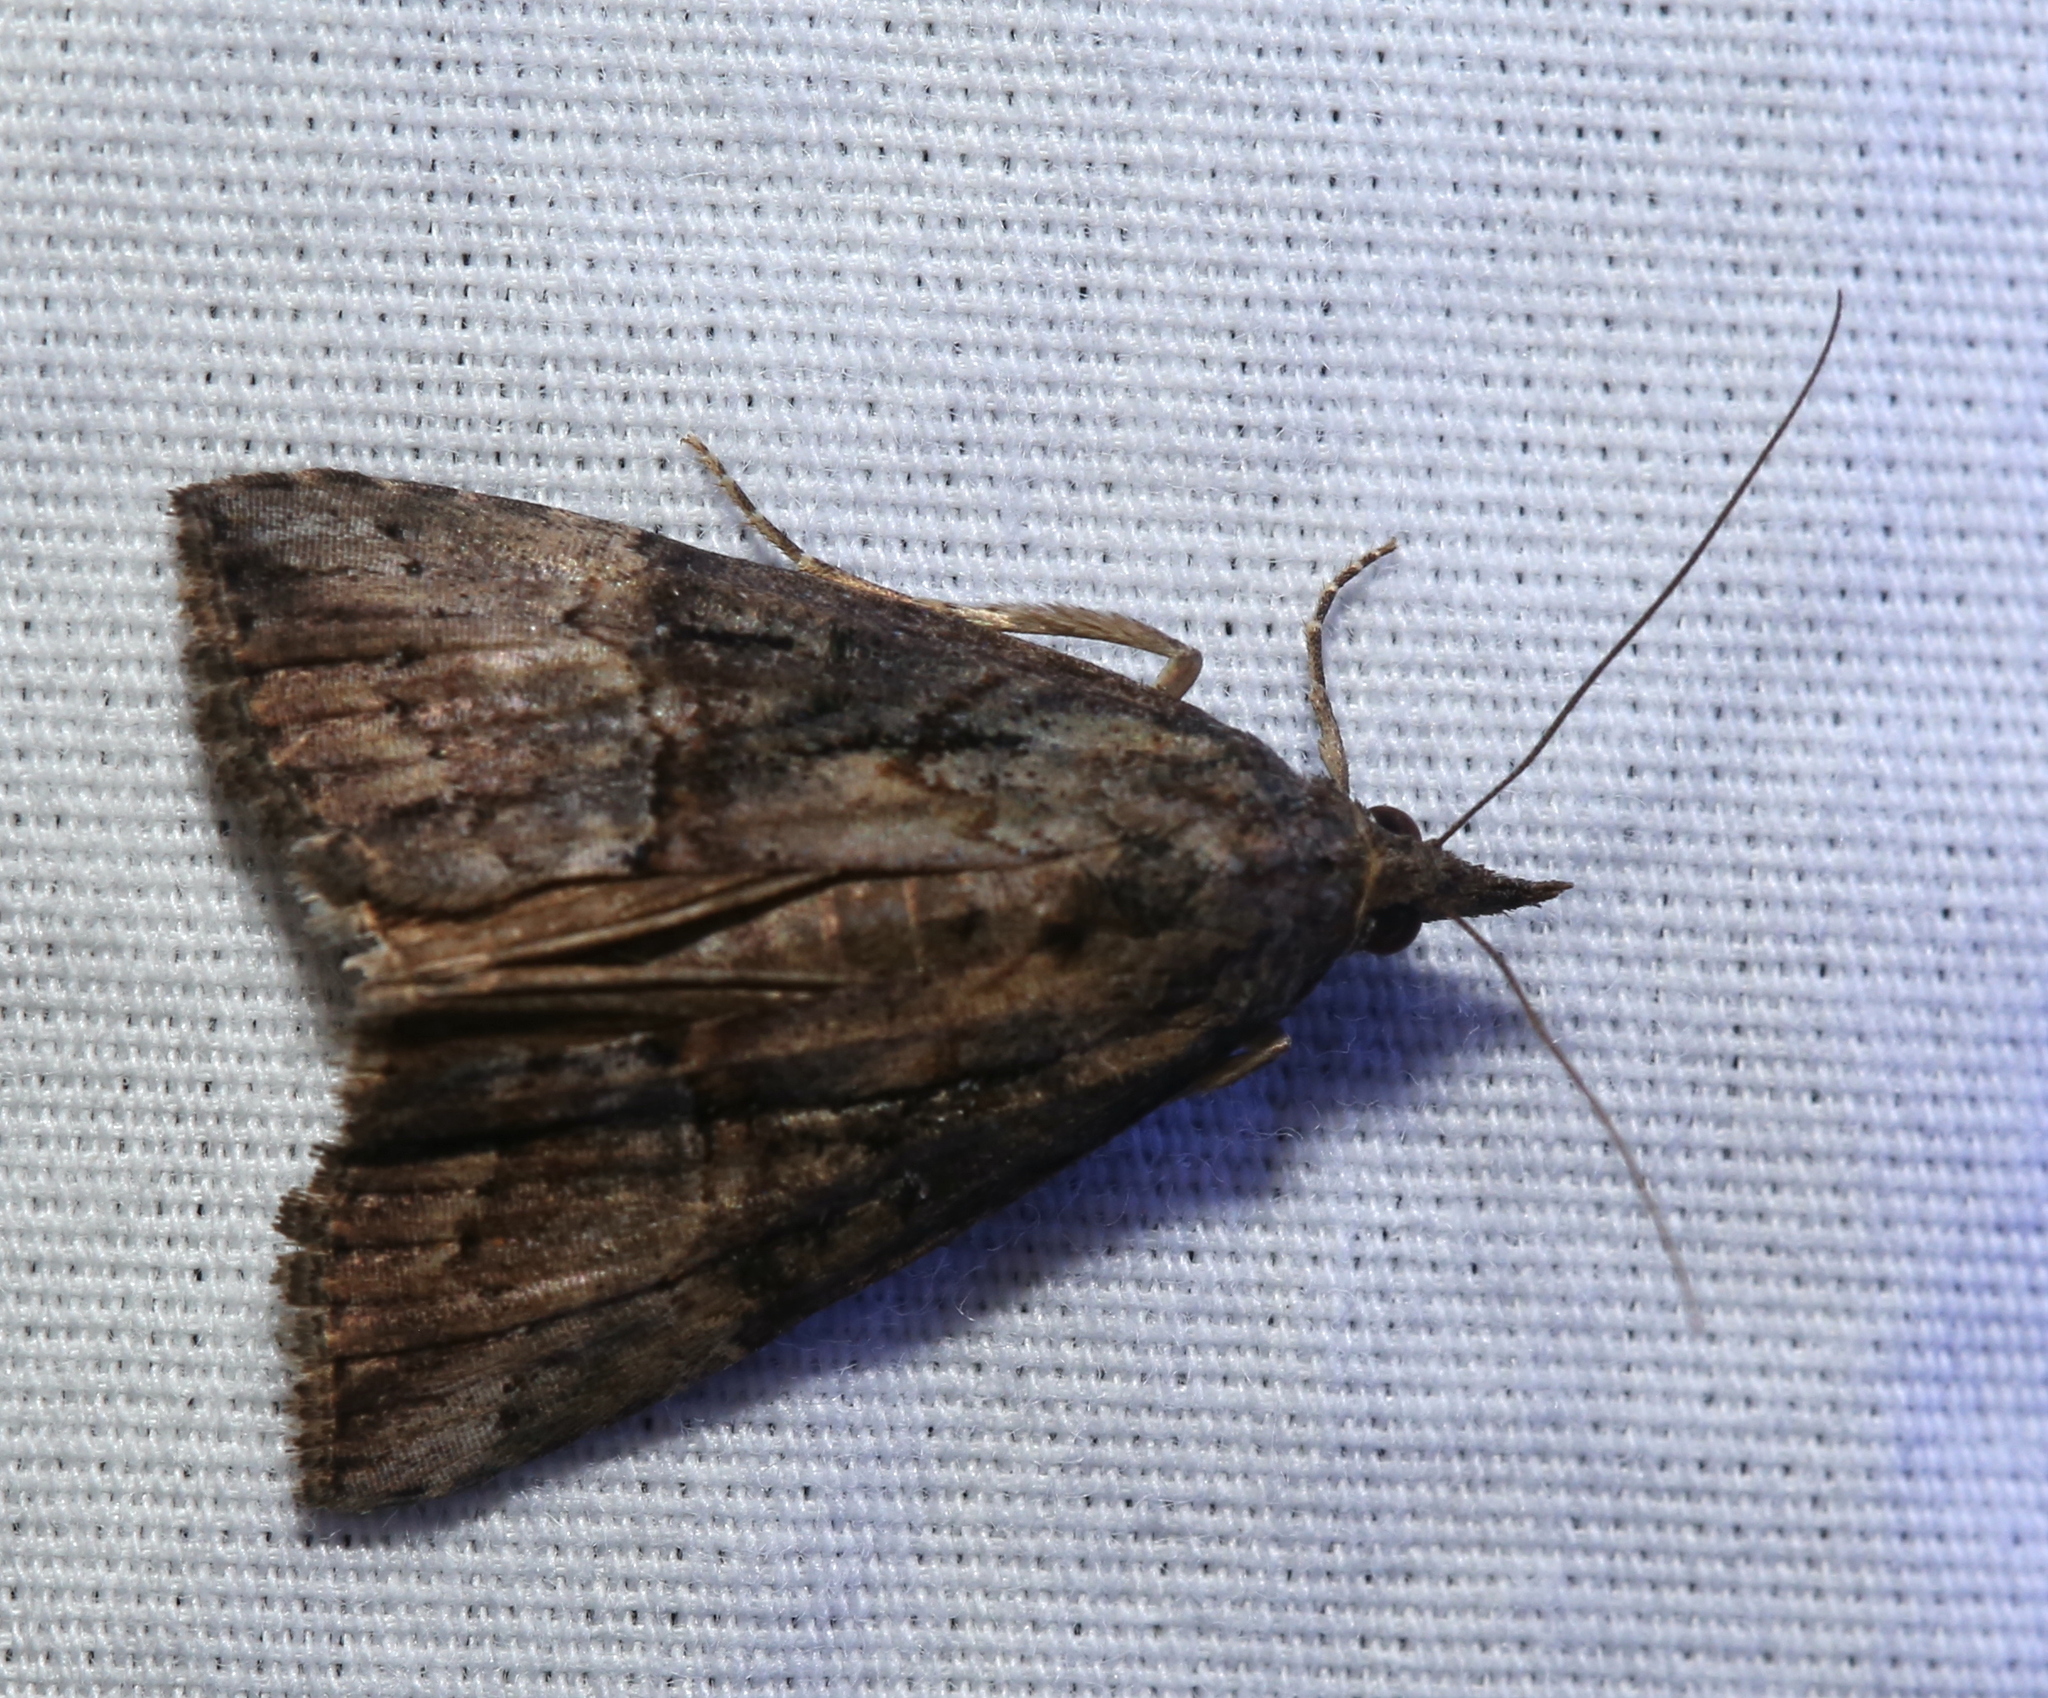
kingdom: Animalia
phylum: Arthropoda
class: Insecta
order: Lepidoptera
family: Erebidae
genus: Hypena
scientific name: Hypena scabra
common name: Green cloverworm
